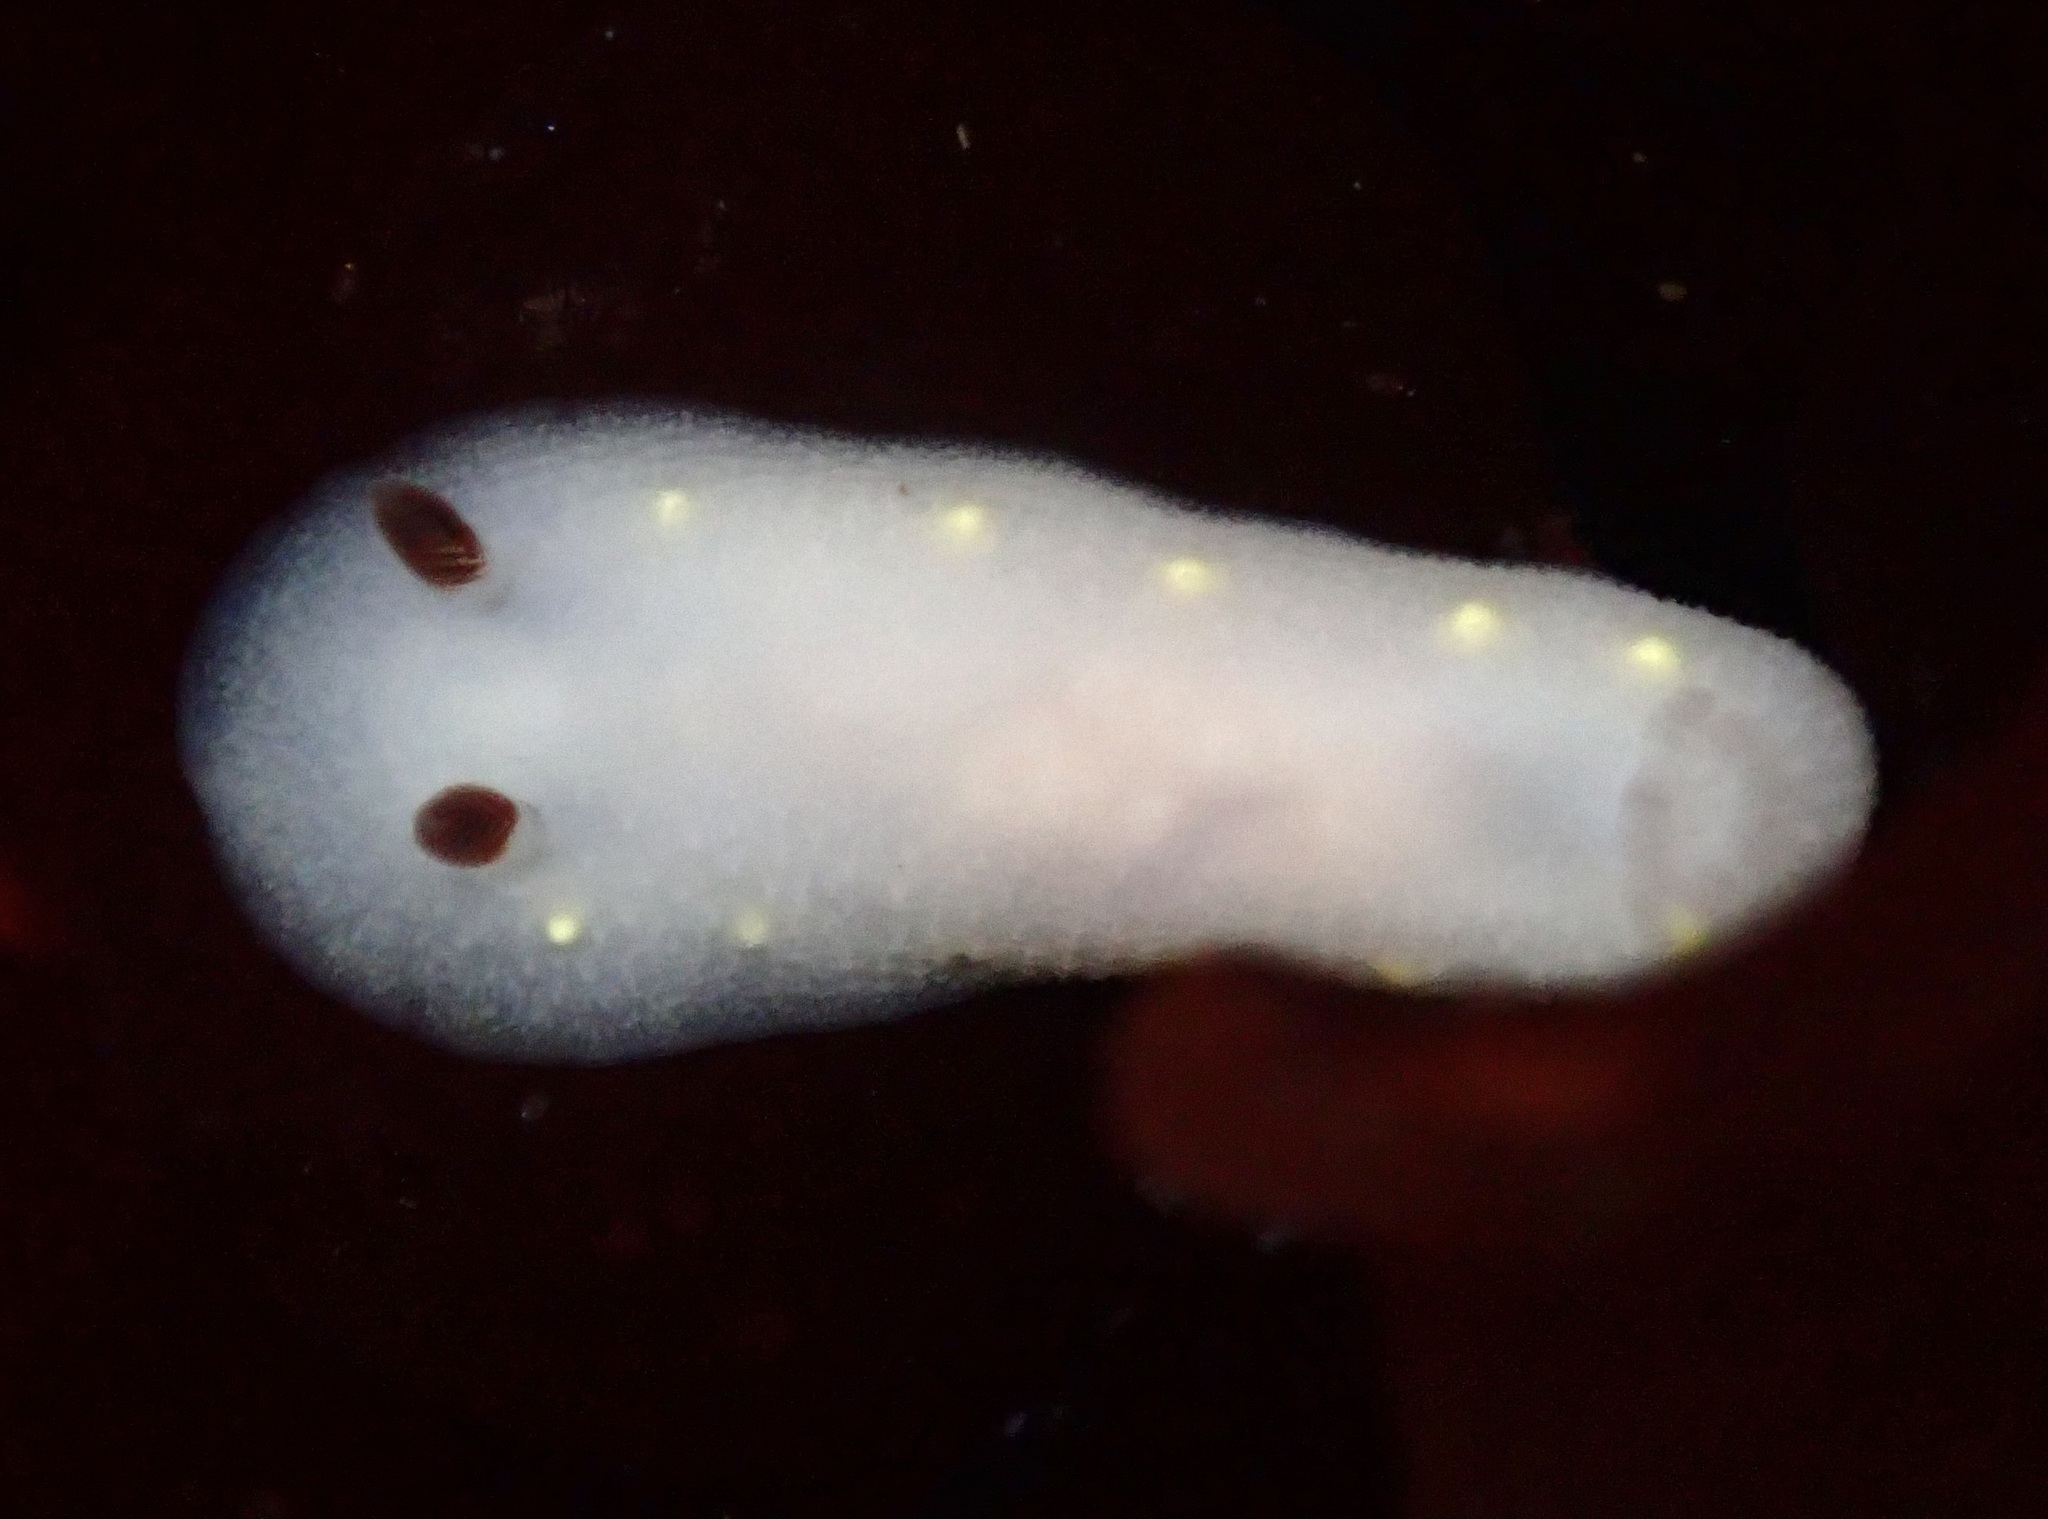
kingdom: Animalia
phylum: Mollusca
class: Gastropoda
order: Nudibranchia
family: Cadlinidae
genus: Cadlina
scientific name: Cadlina flavomaculata
